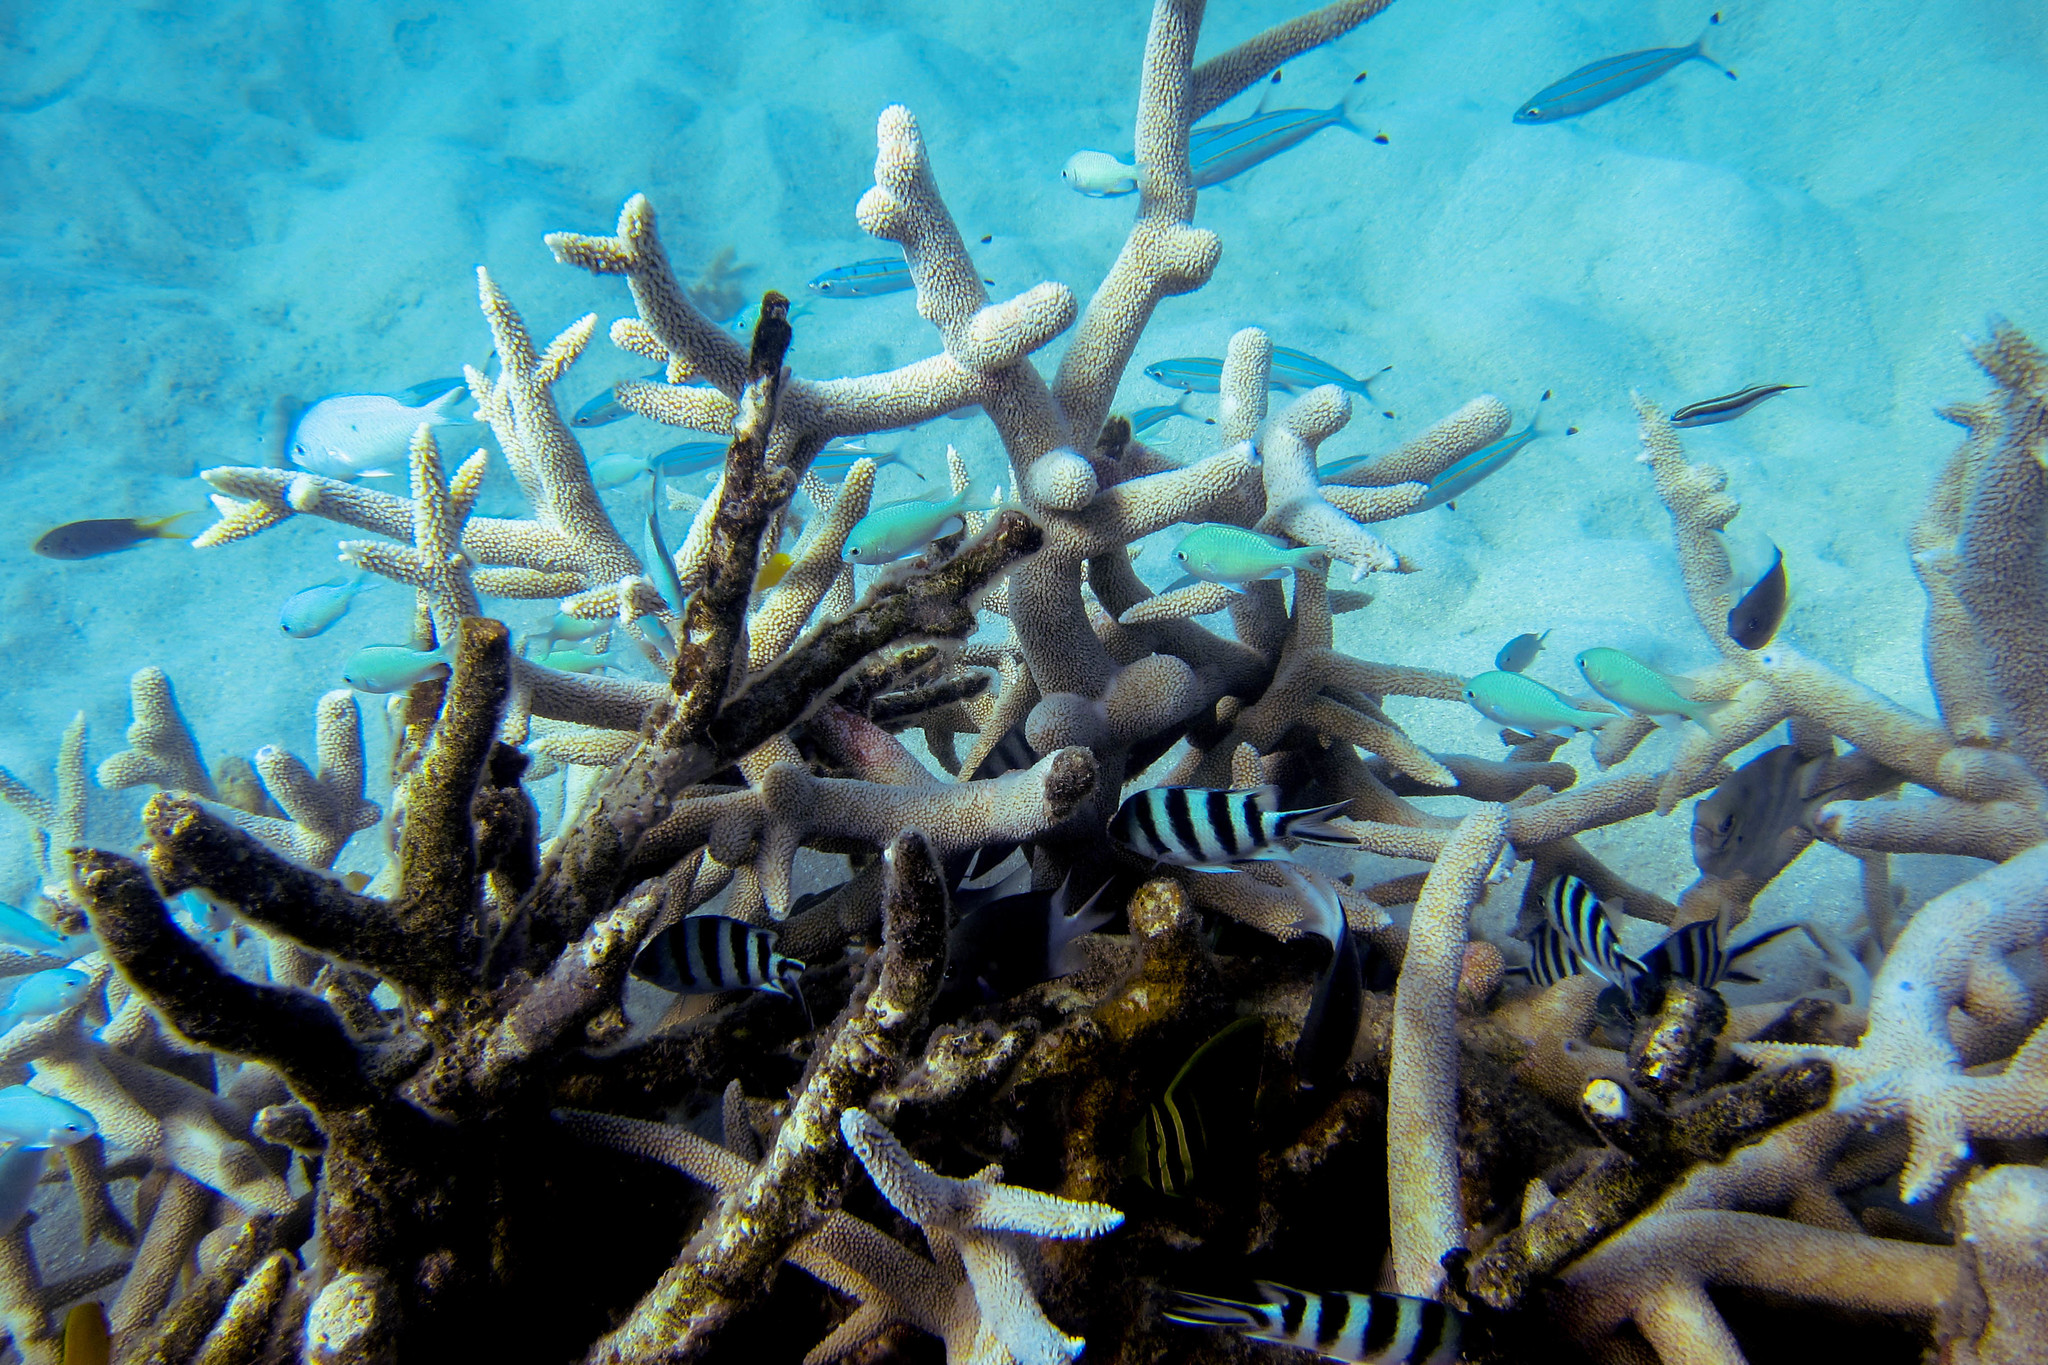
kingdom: Animalia
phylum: Chordata
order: Perciformes
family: Pomacentridae
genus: Abudefduf
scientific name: Abudefduf sexfasciatus
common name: Scissortail sergeant
